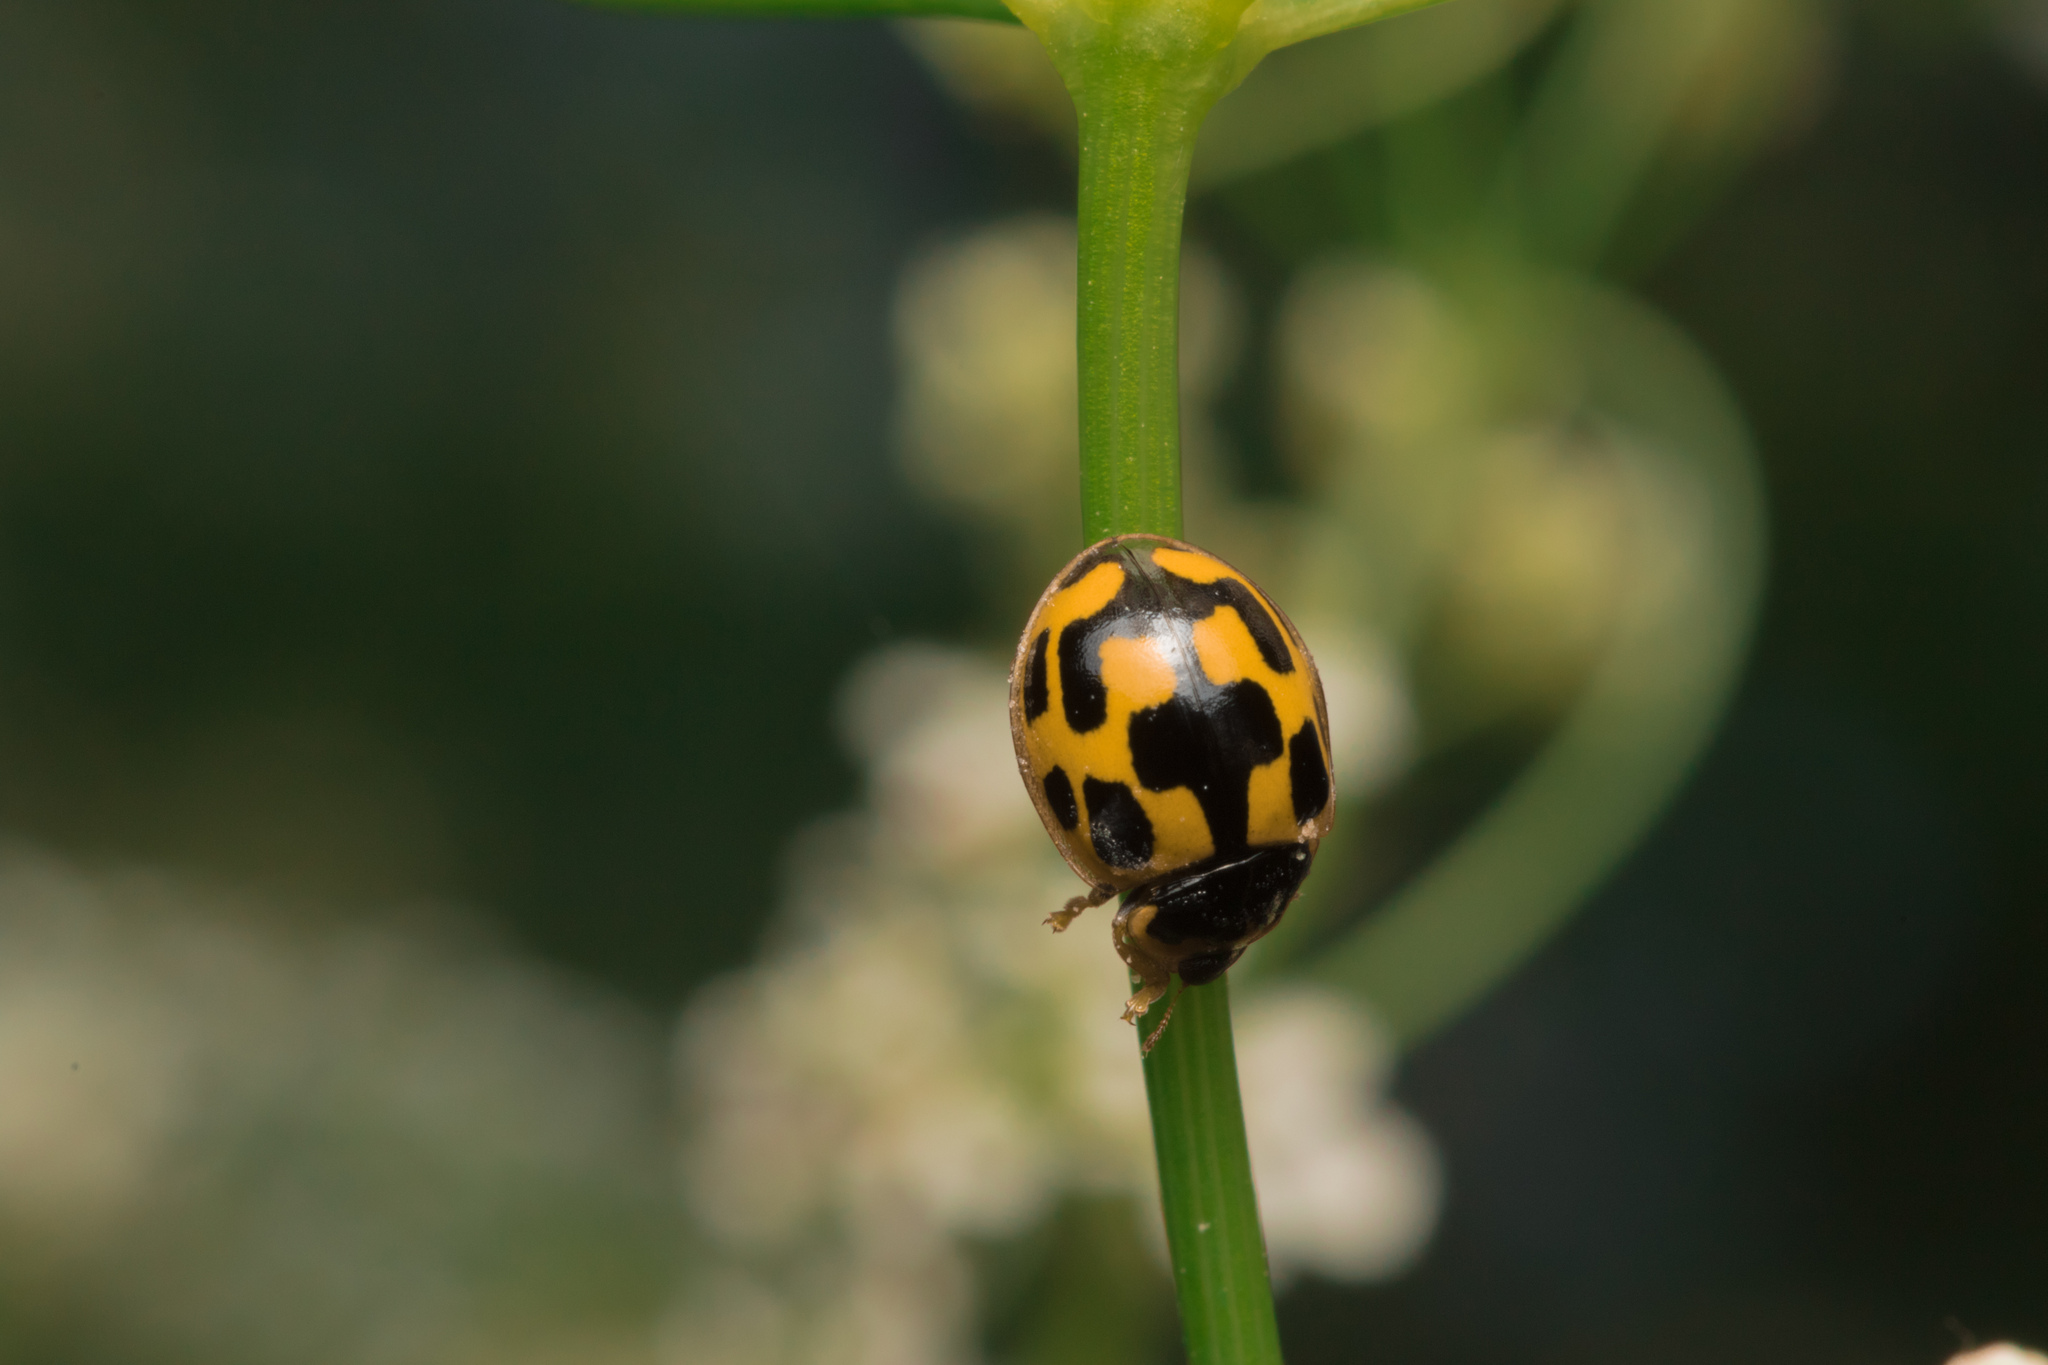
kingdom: Animalia
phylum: Arthropoda
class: Insecta
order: Coleoptera
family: Coccinellidae
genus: Propylaea
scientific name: Propylaea quatuordecimpunctata
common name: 14-spotted ladybird beetle
